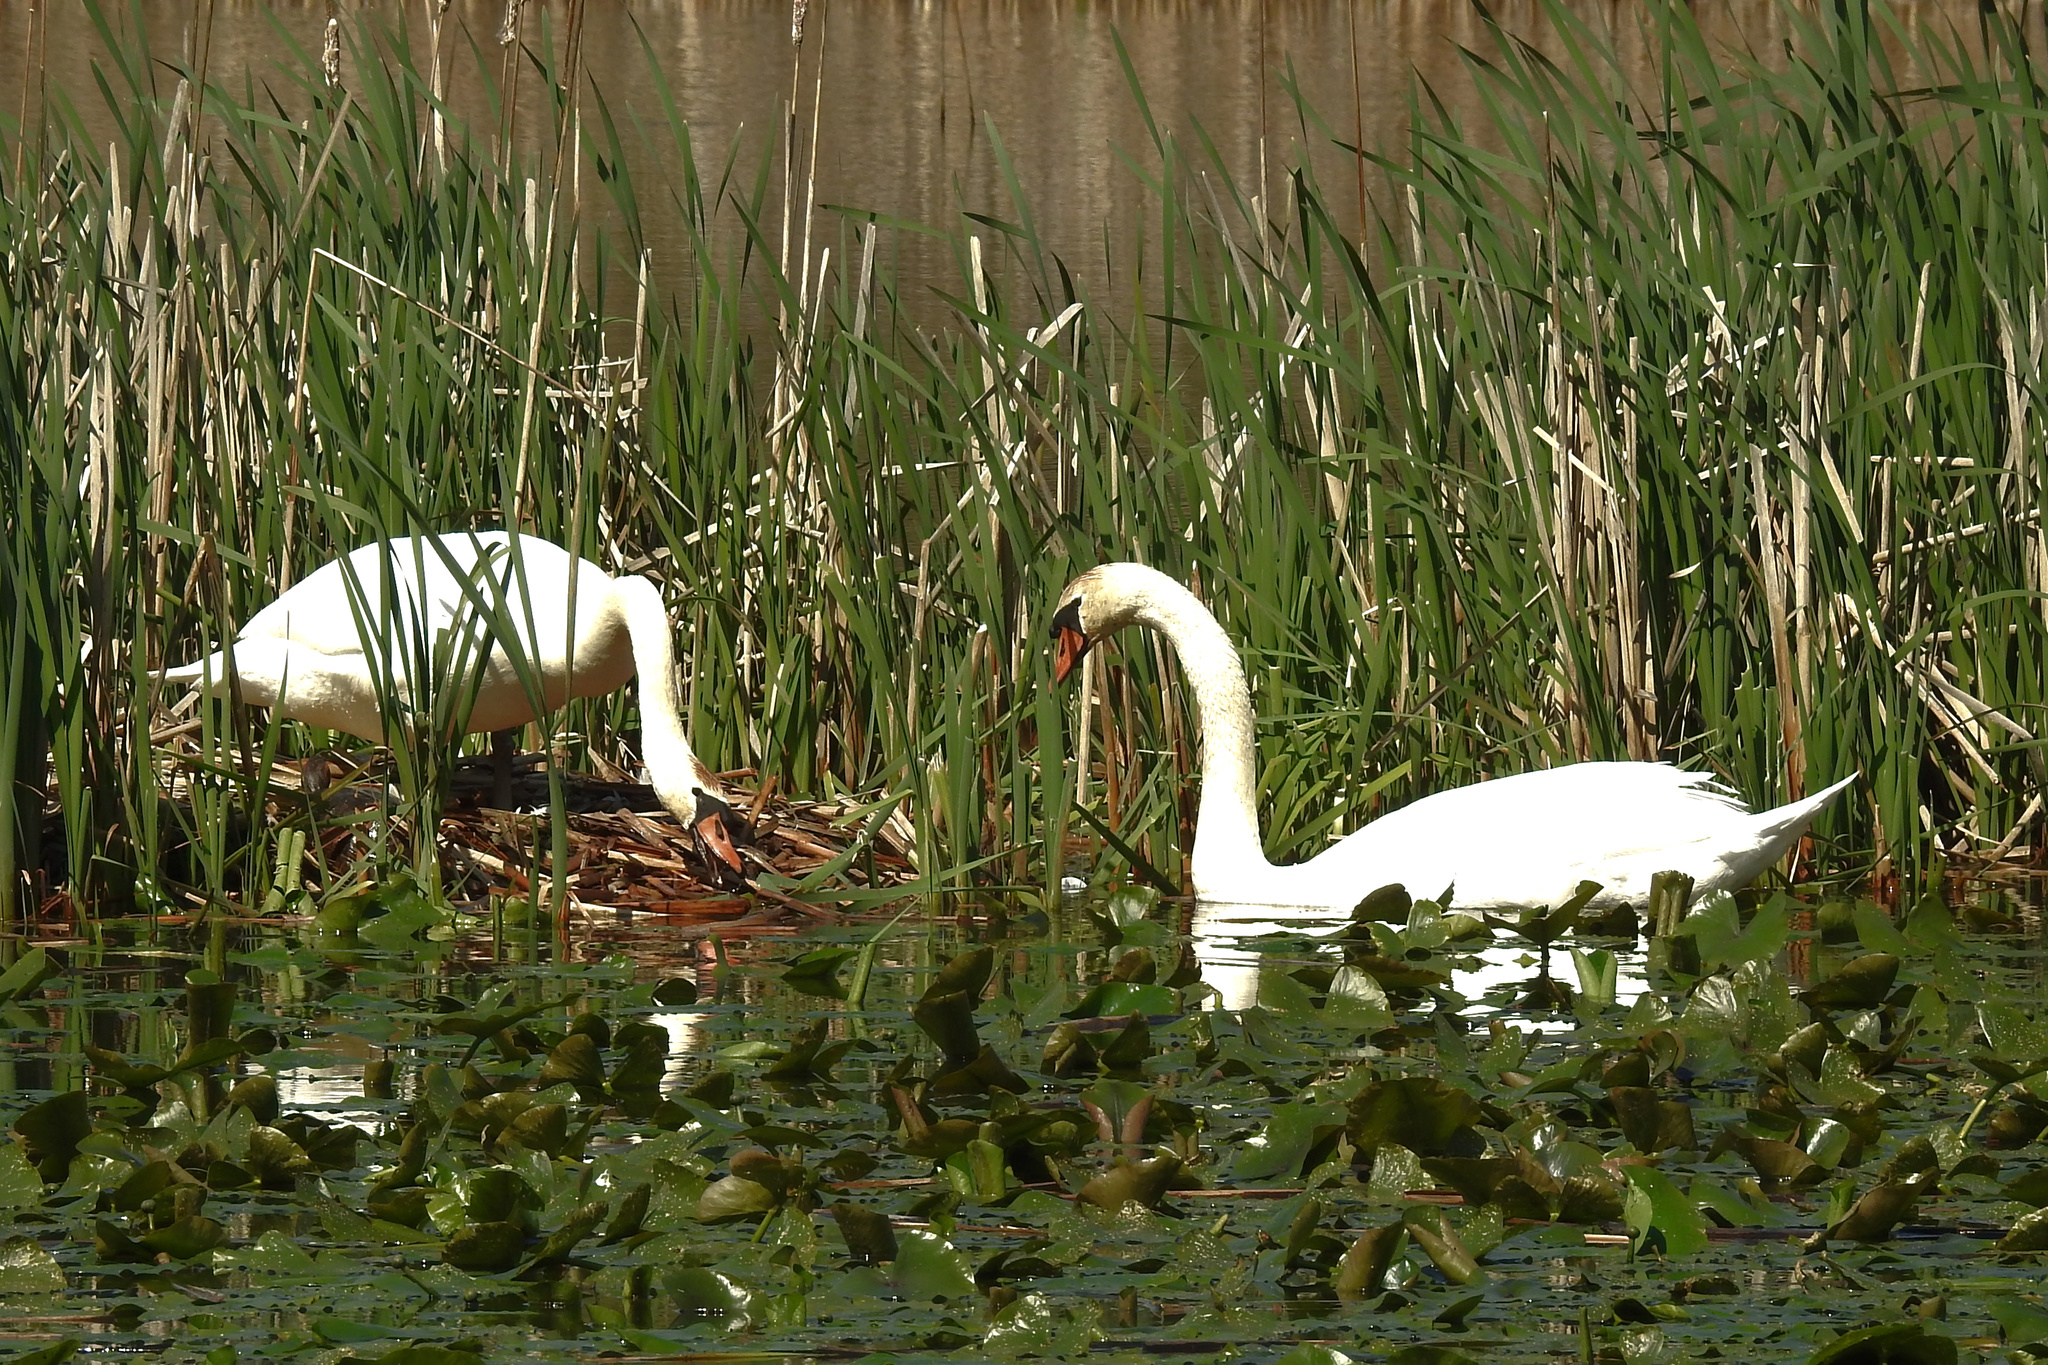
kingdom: Animalia
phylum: Chordata
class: Aves
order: Anseriformes
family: Anatidae
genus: Cygnus
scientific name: Cygnus olor
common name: Mute swan
